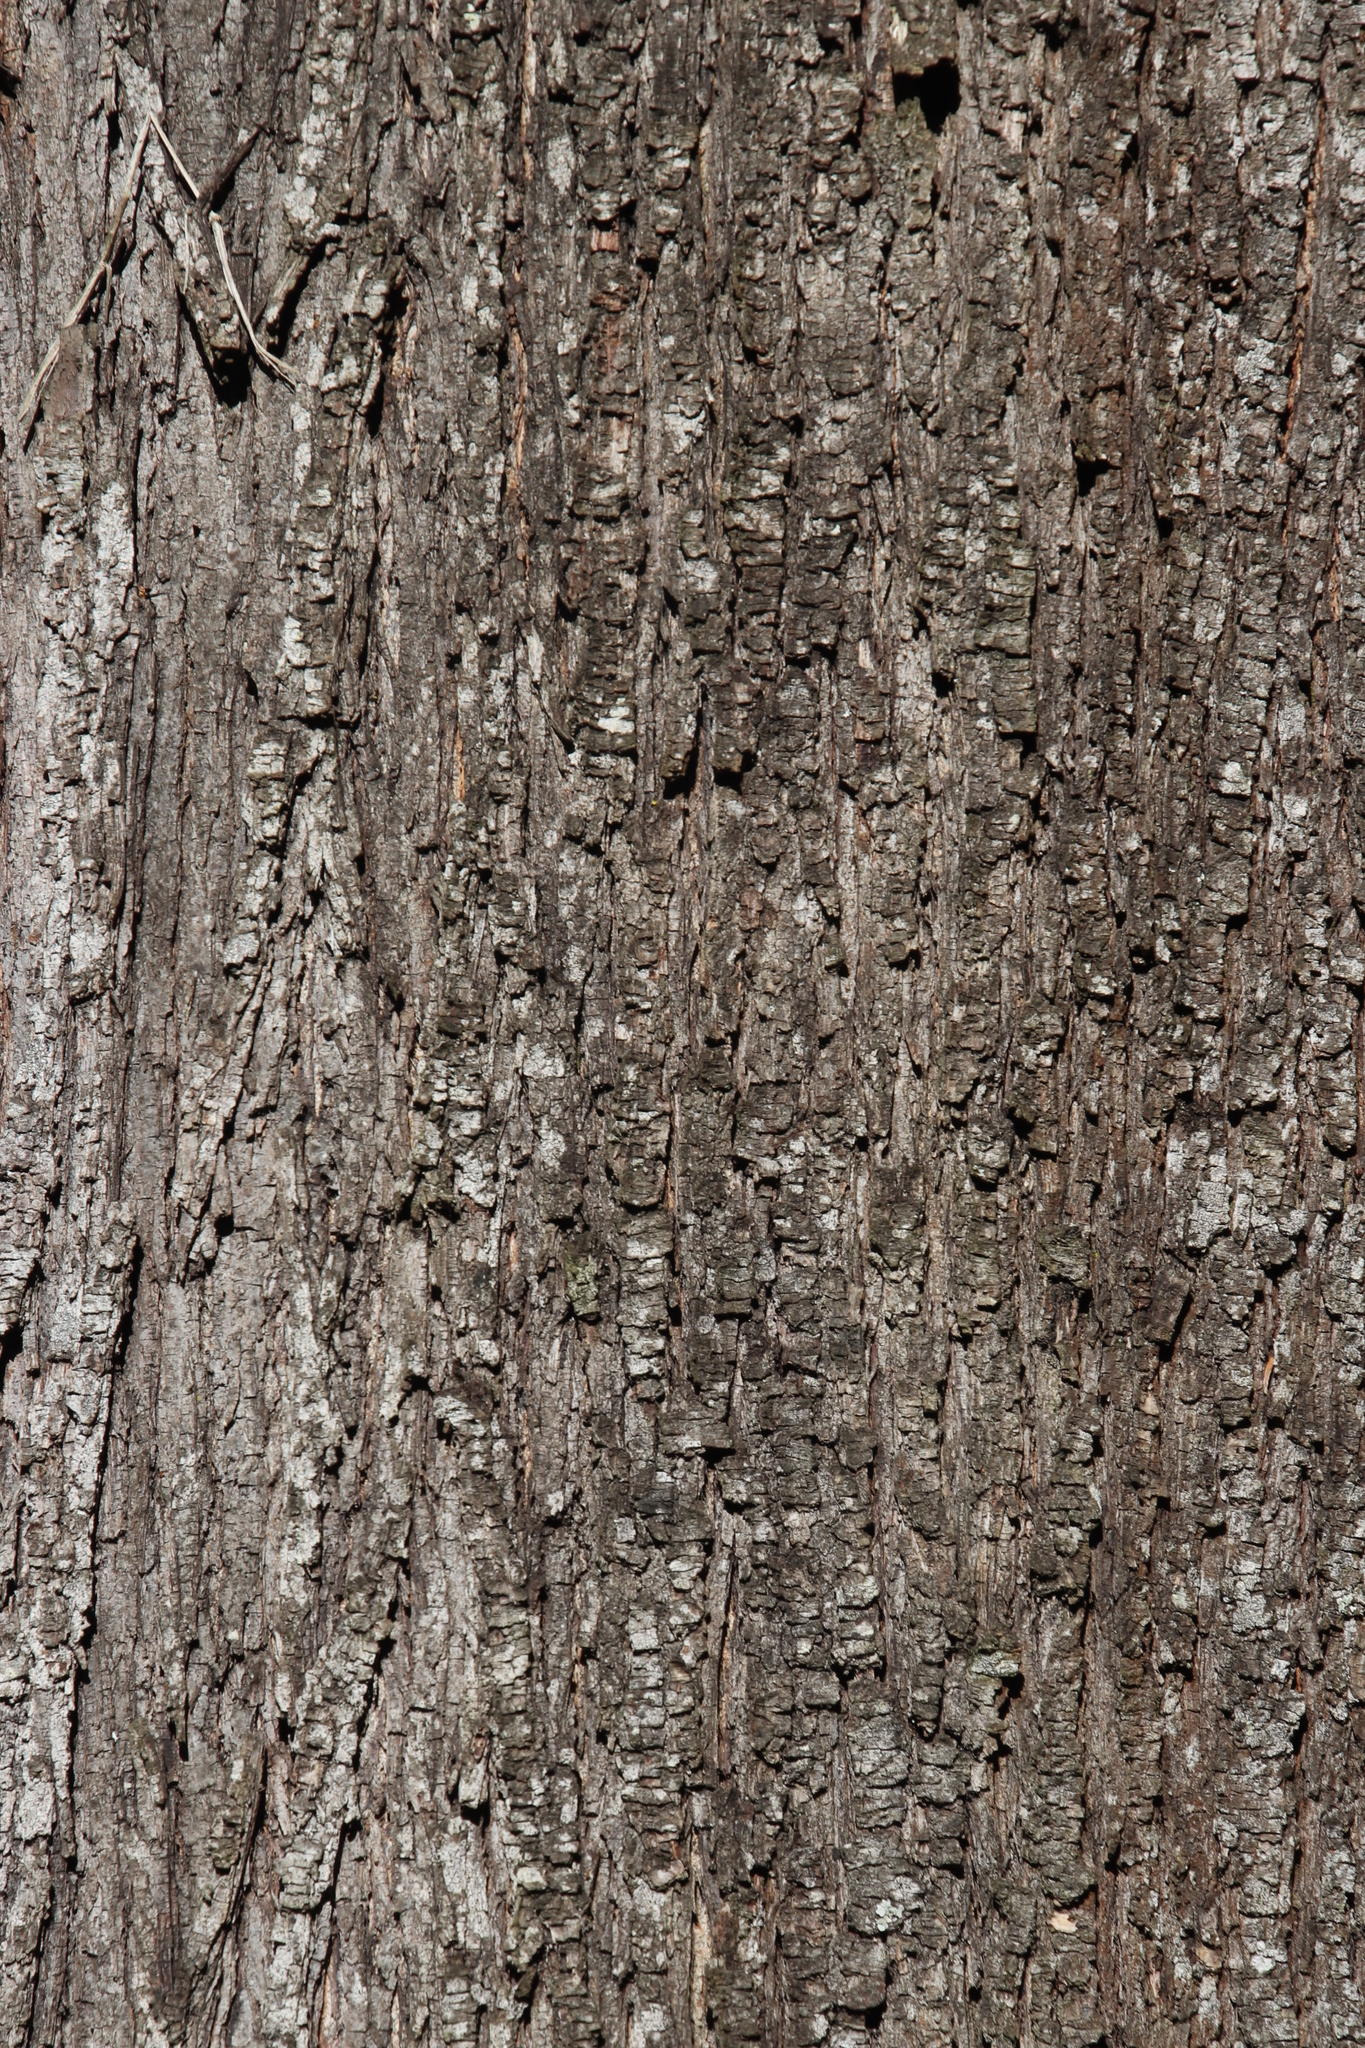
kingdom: Plantae
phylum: Tracheophyta
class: Magnoliopsida
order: Fabales
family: Fabaceae
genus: Acacia
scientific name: Acacia melanoxylon
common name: Blackwood
